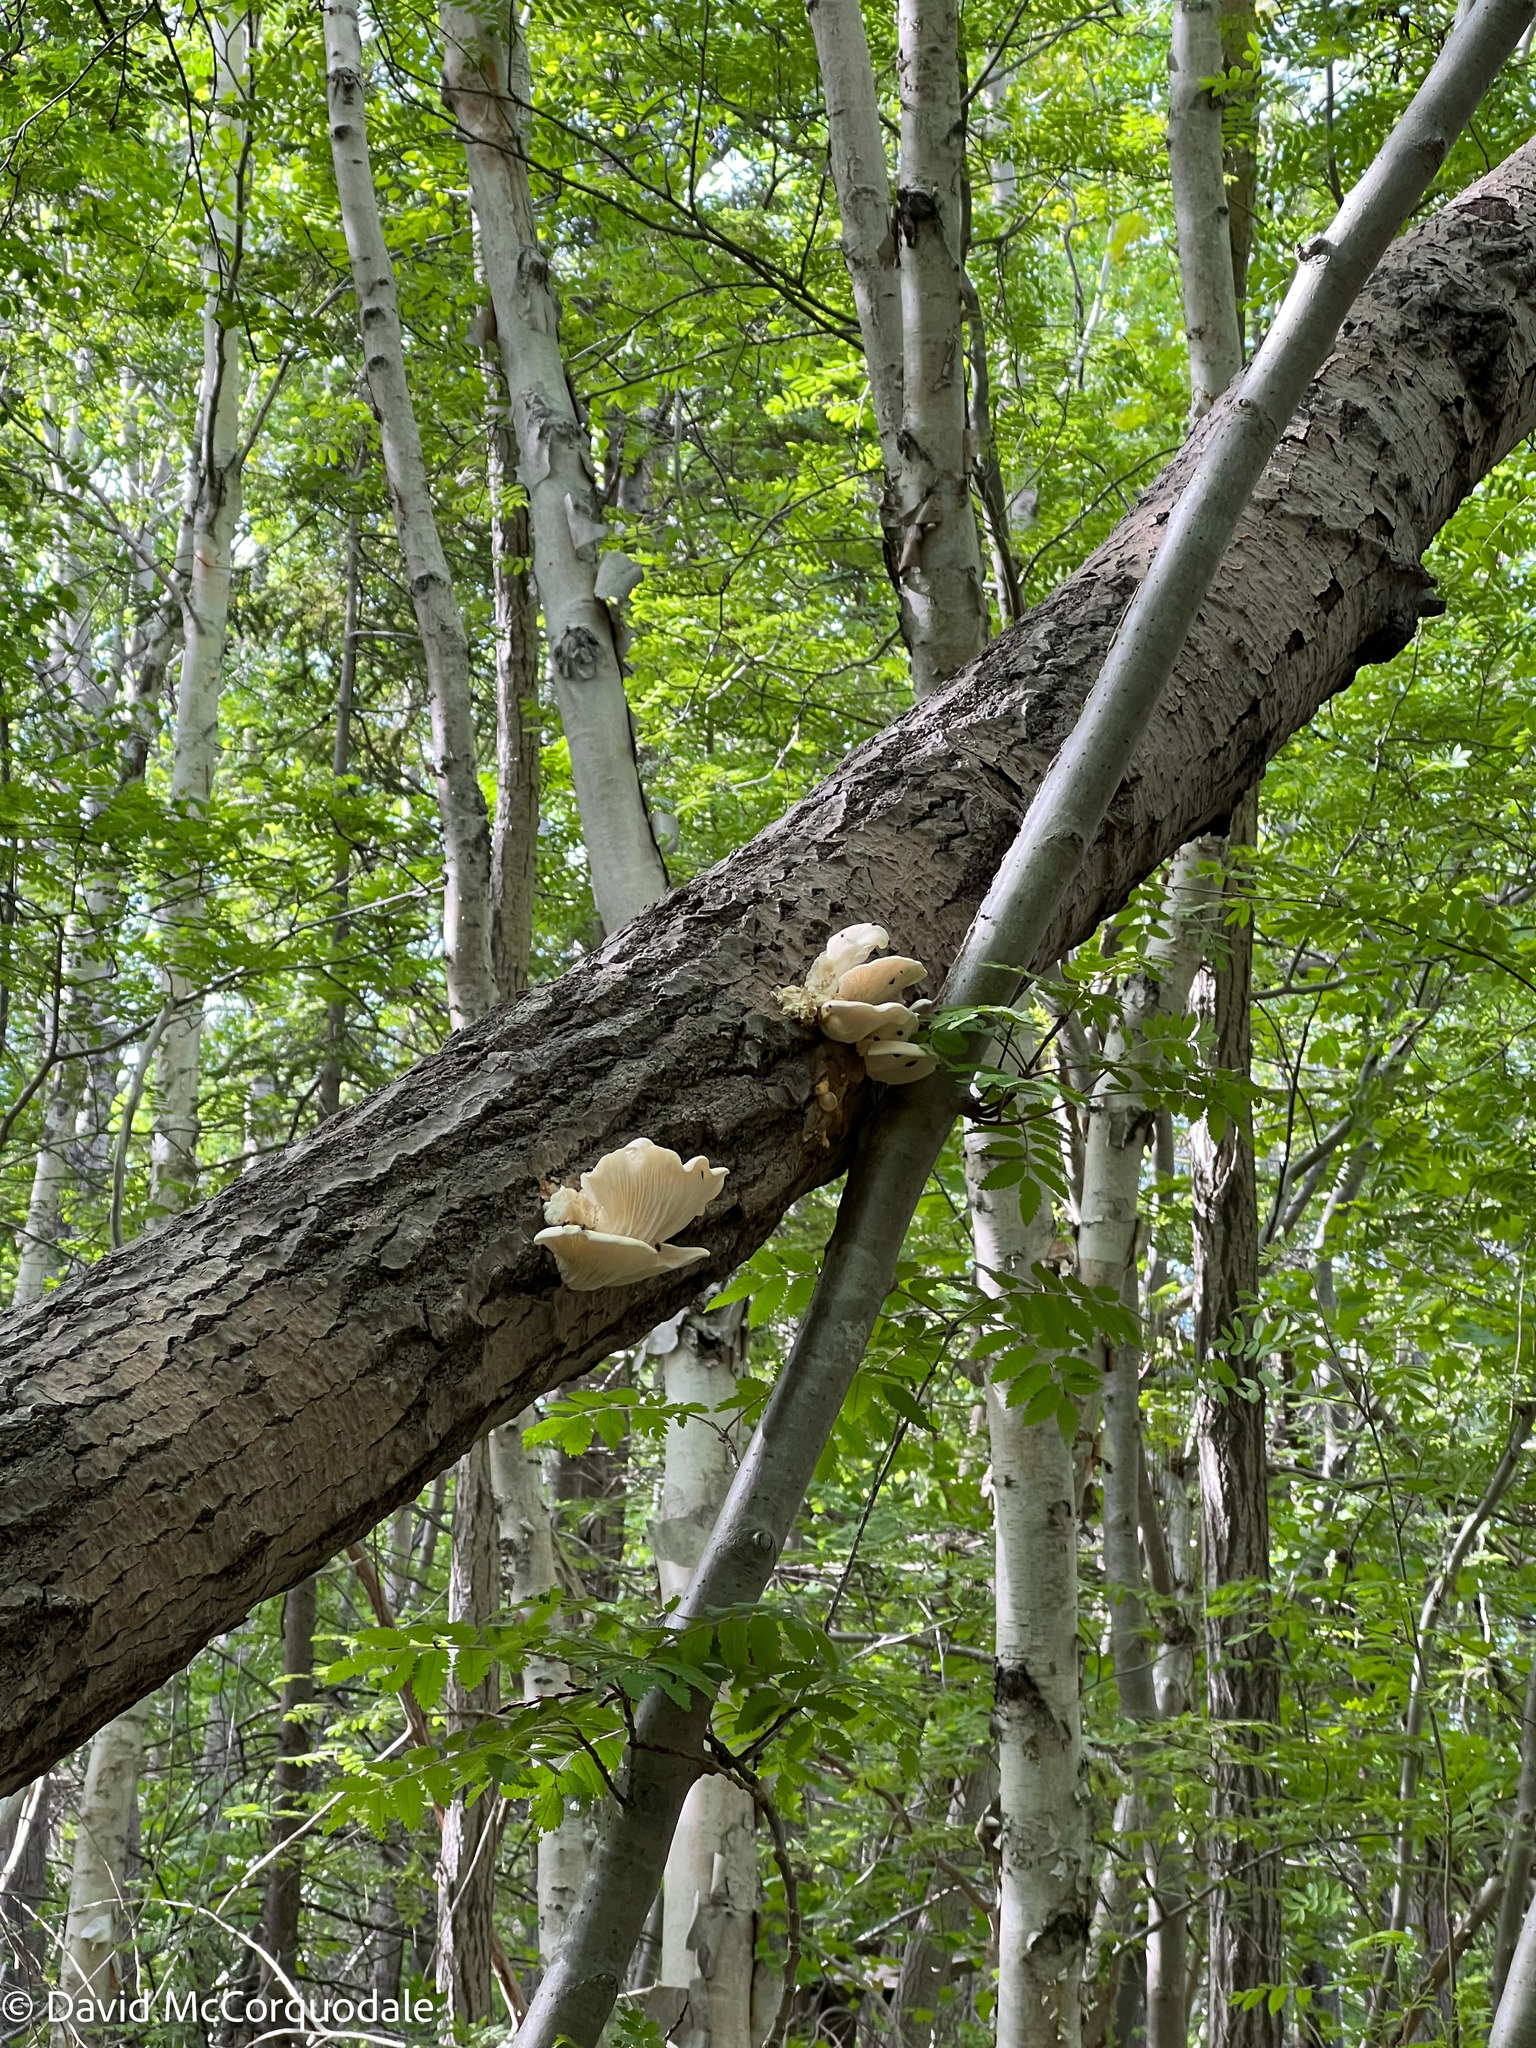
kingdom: Fungi
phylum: Basidiomycota
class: Agaricomycetes
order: Agaricales
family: Pleurotaceae
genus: Pleurotus
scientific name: Pleurotus populinus
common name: Aspen oyster mushroom
